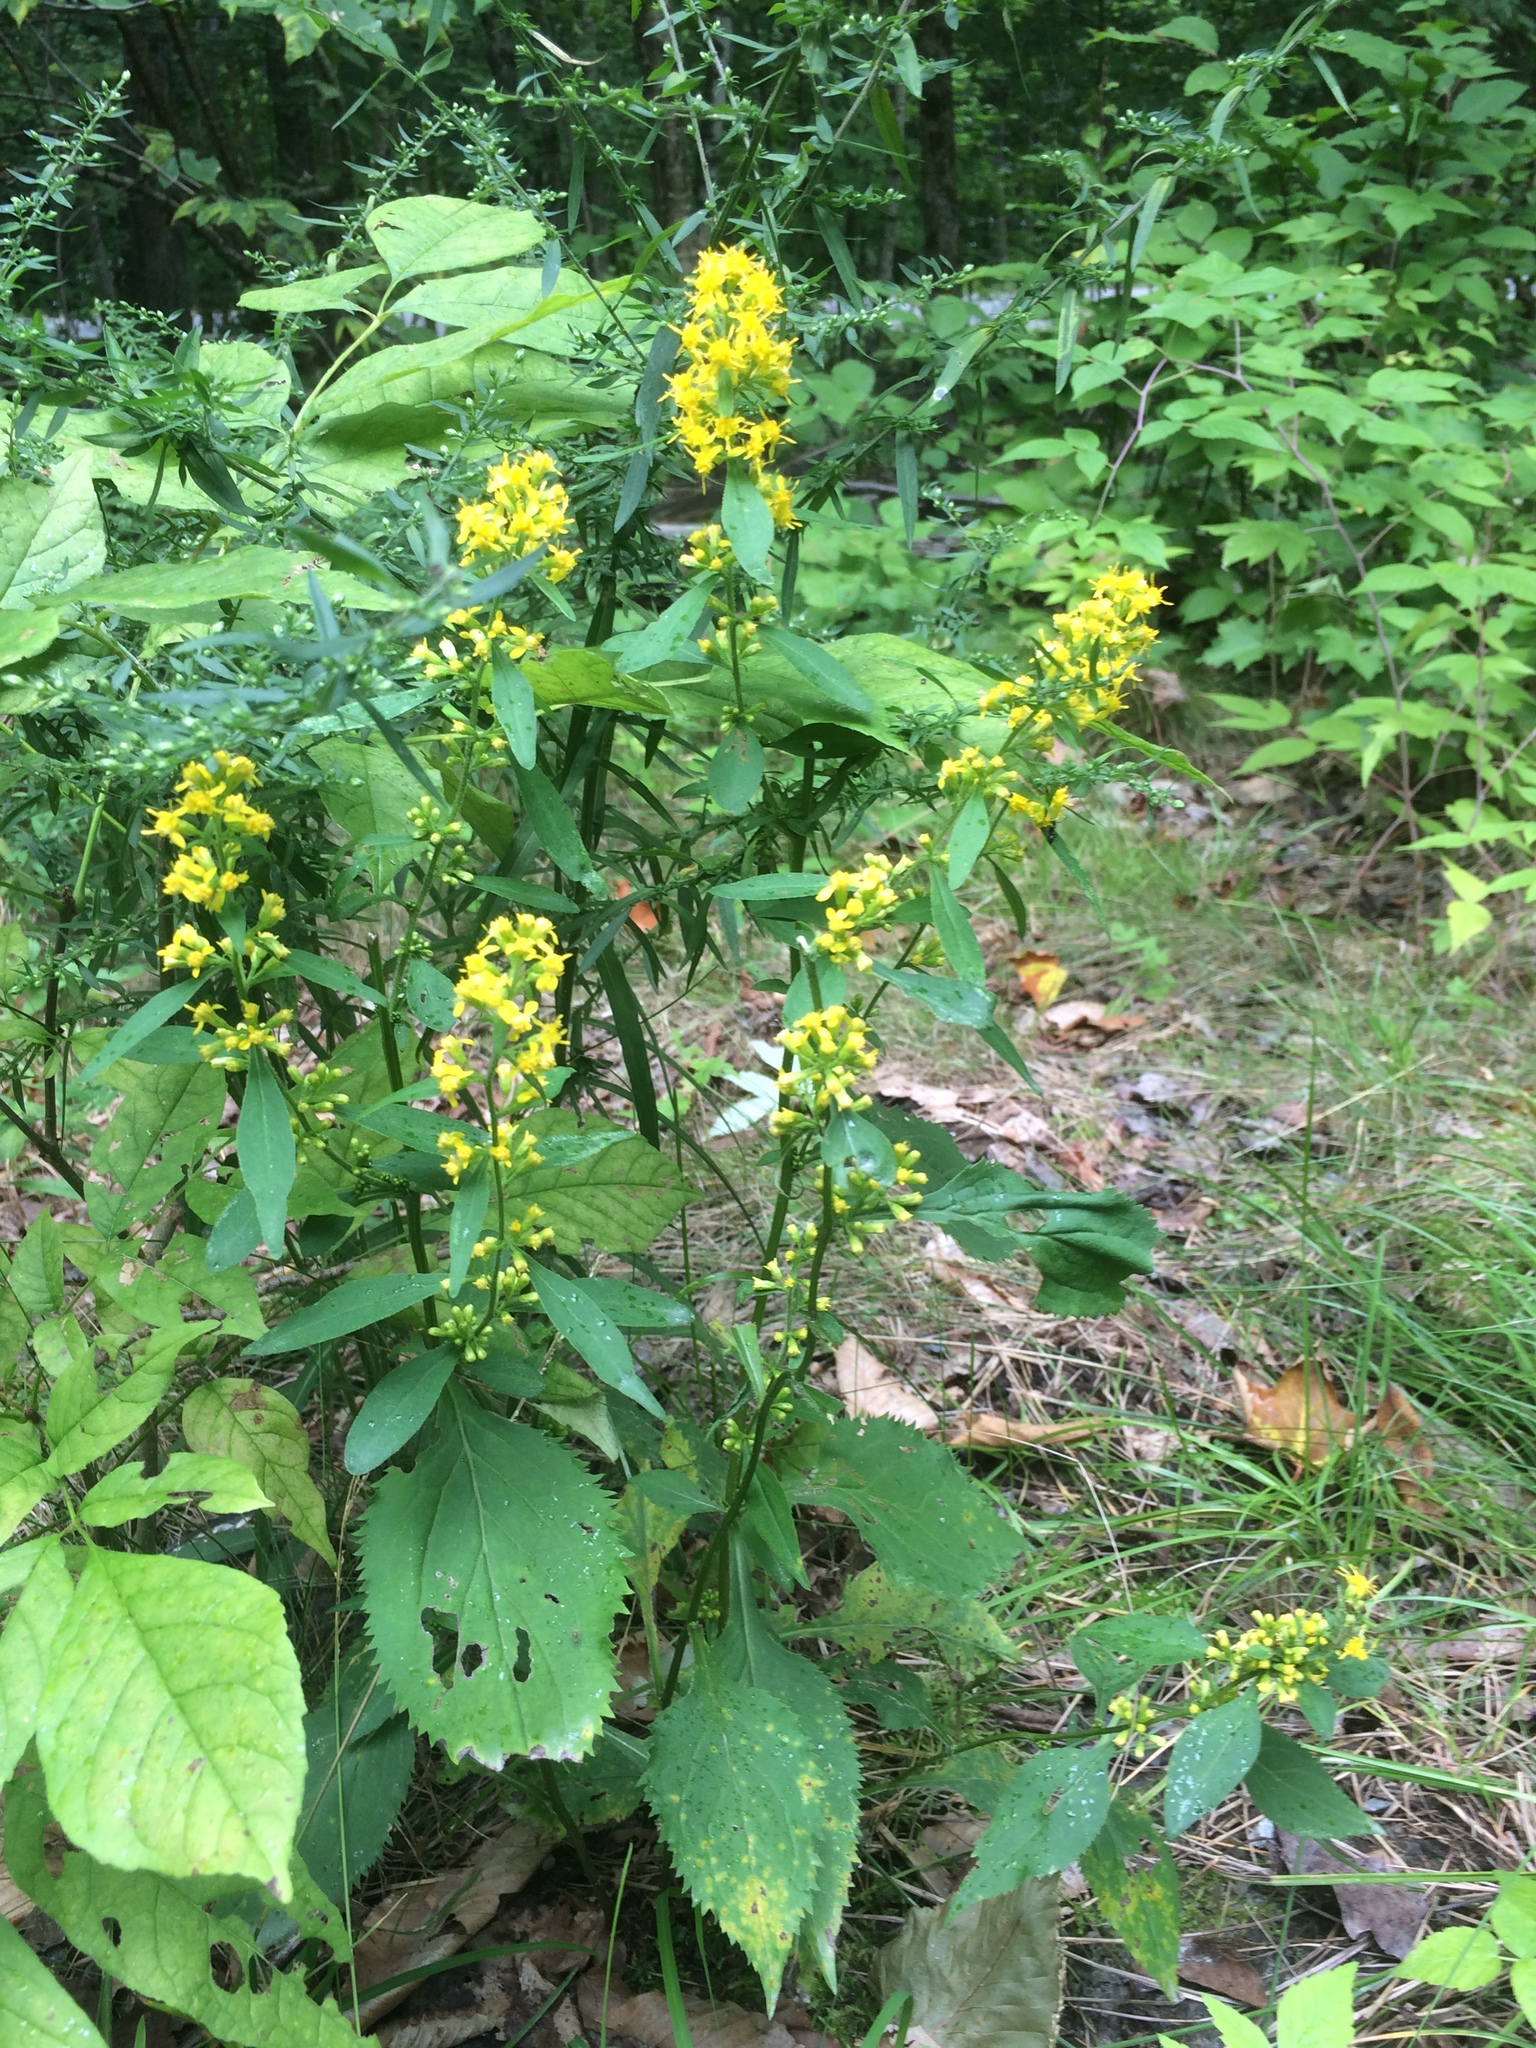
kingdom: Plantae
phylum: Tracheophyta
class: Magnoliopsida
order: Asterales
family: Asteraceae
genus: Solidago
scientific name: Solidago flexicaulis
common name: Zig-zag goldenrod
